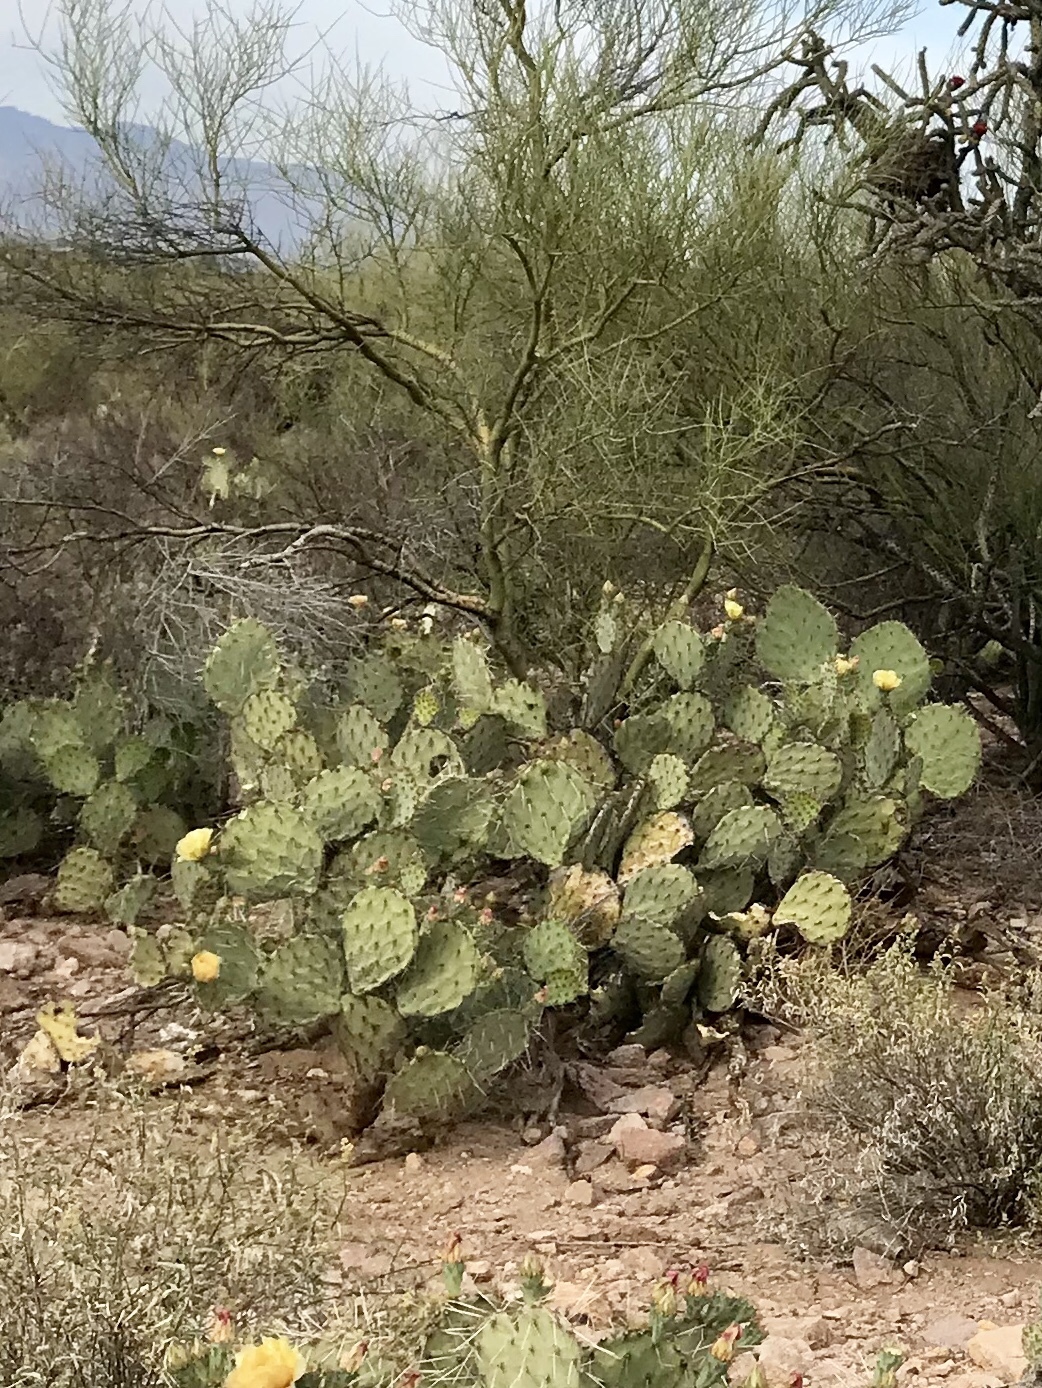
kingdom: Plantae
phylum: Tracheophyta
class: Magnoliopsida
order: Caryophyllales
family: Cactaceae
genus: Opuntia
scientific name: Opuntia engelmannii
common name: Cactus-apple
